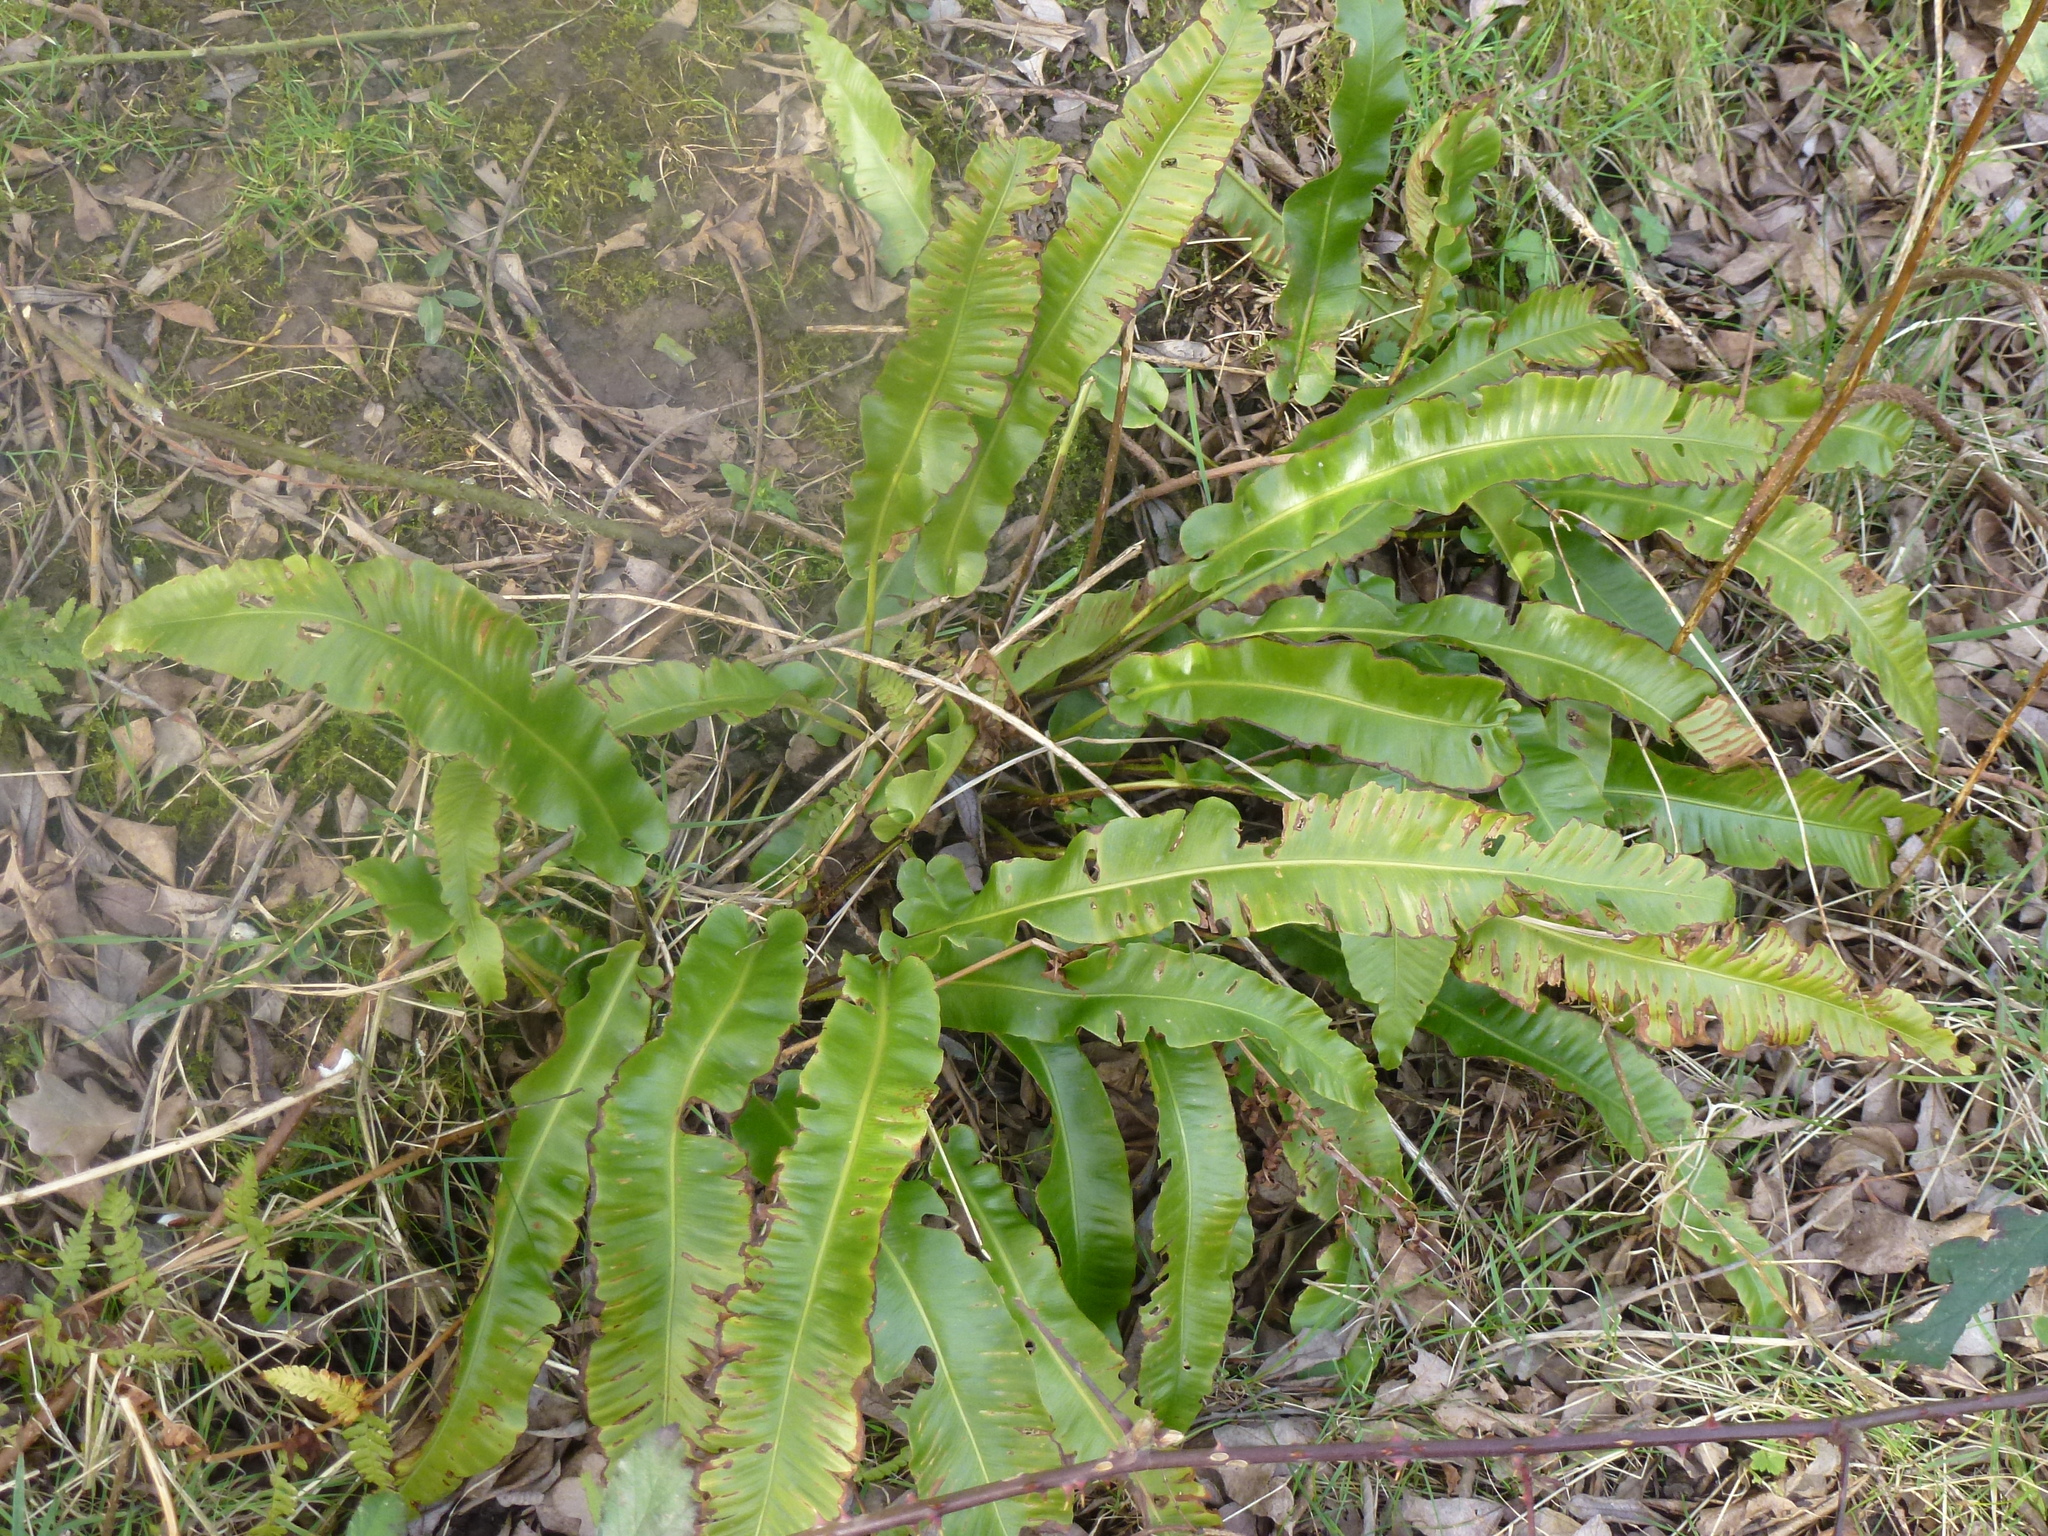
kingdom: Plantae
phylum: Tracheophyta
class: Polypodiopsida
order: Polypodiales
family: Aspleniaceae
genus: Asplenium
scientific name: Asplenium scolopendrium
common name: Hart's-tongue fern
